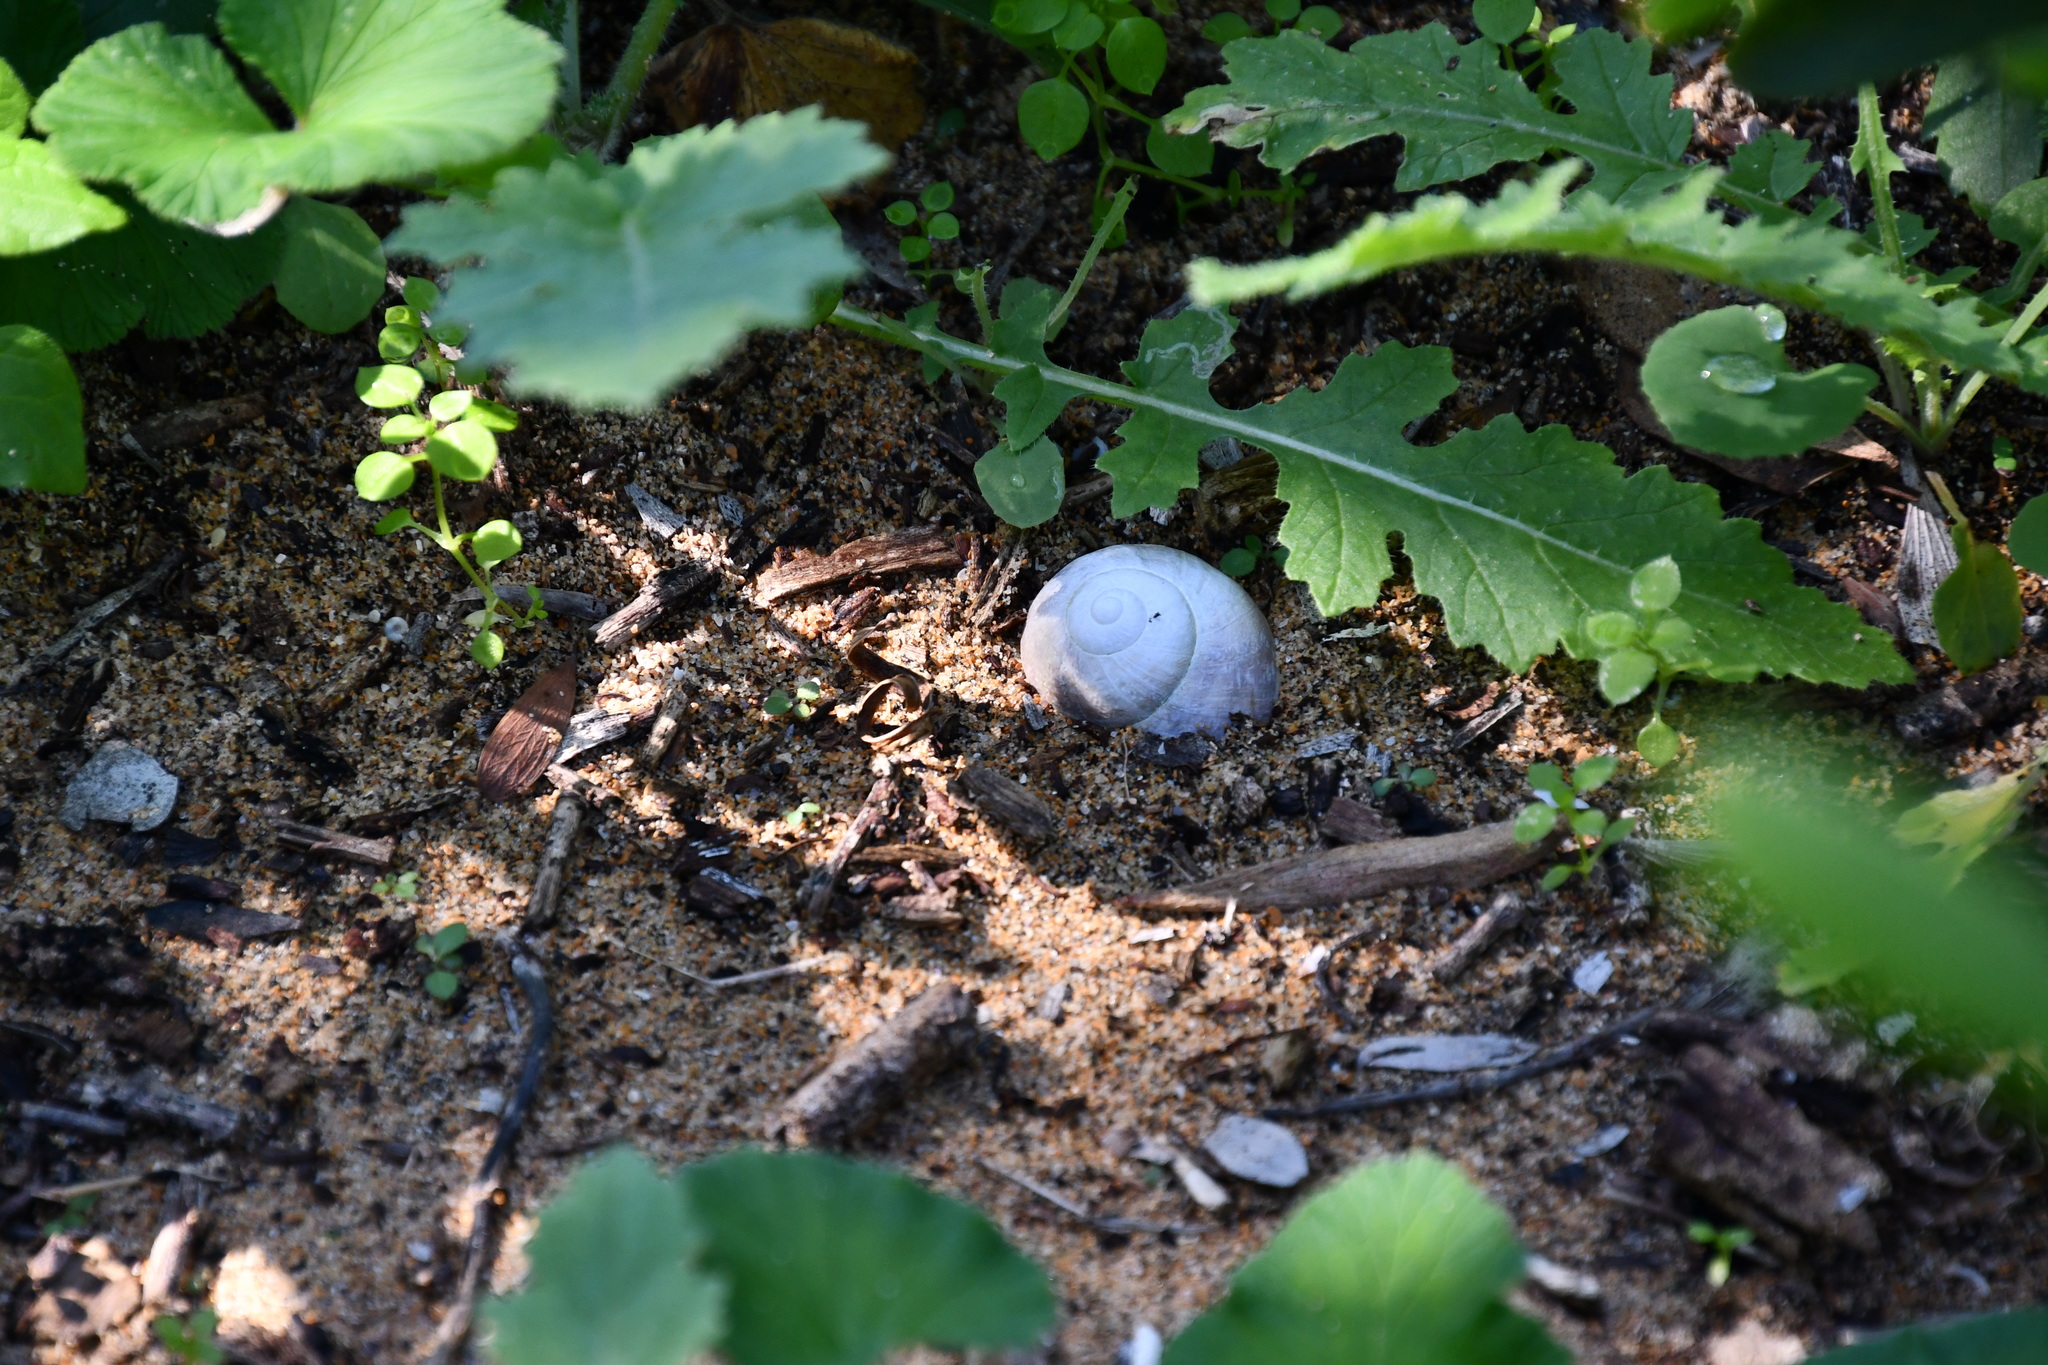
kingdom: Animalia
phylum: Mollusca
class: Gastropoda
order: Stylommatophora
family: Helicidae
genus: Cornu
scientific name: Cornu aspersum
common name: Brown garden snail
